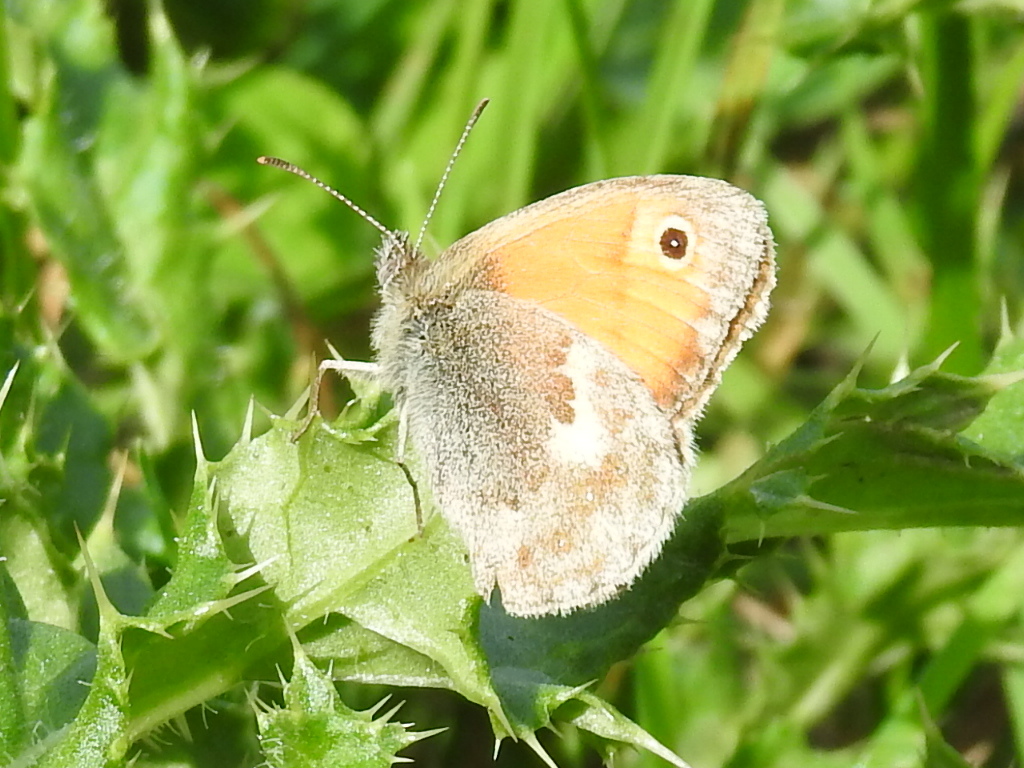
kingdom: Animalia
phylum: Arthropoda
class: Insecta
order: Lepidoptera
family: Nymphalidae
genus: Coenonympha
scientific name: Coenonympha pamphilus
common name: Small heath
